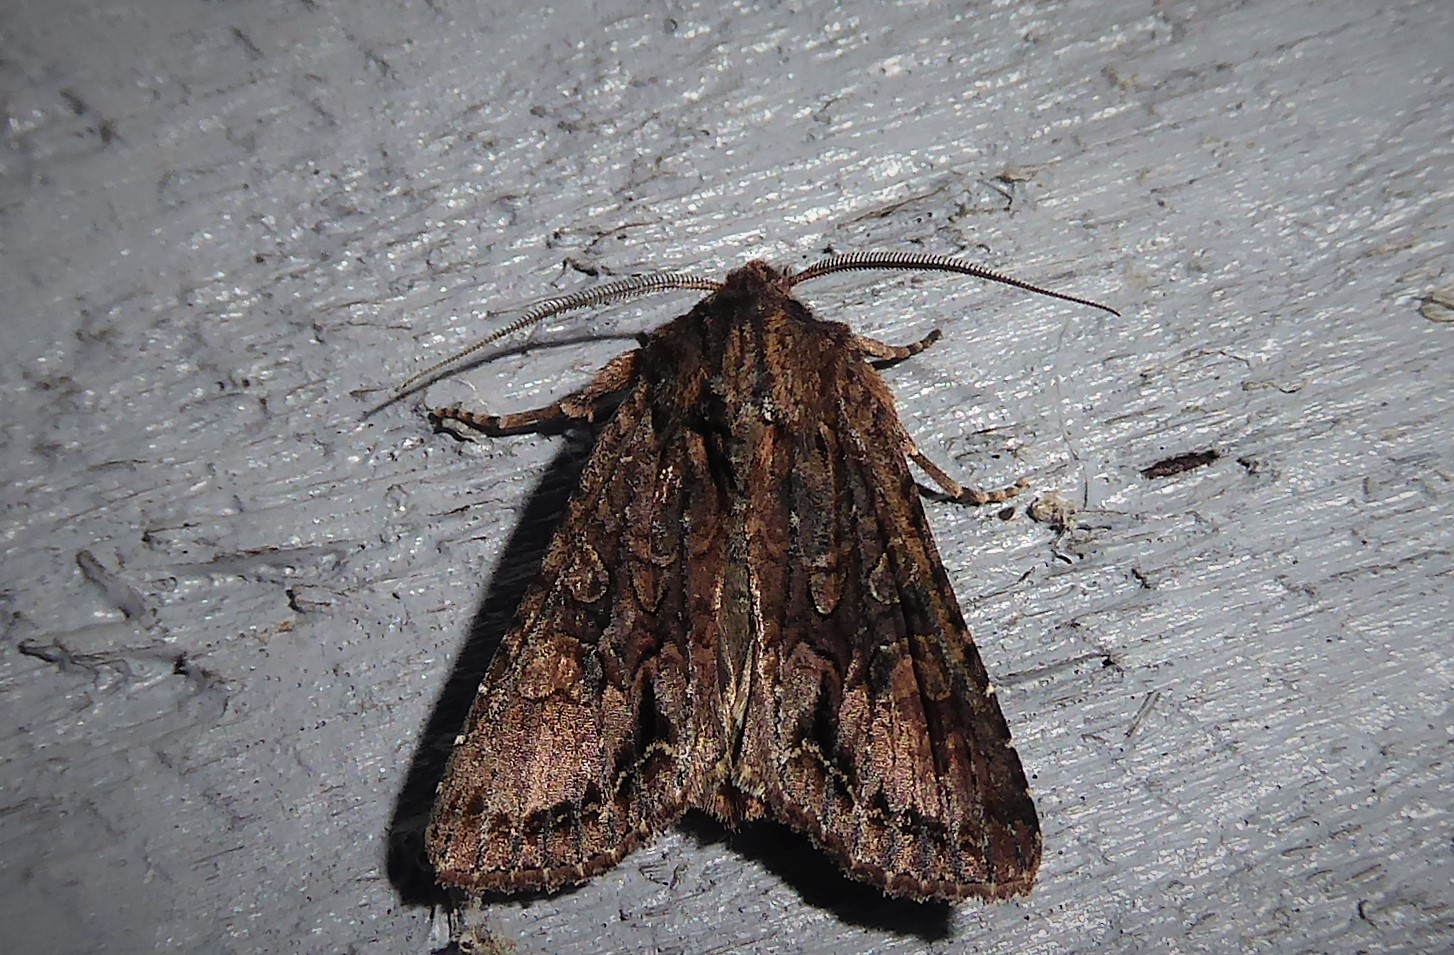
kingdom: Animalia
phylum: Arthropoda
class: Insecta
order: Lepidoptera
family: Noctuidae
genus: Ichneutica
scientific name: Ichneutica mutans
